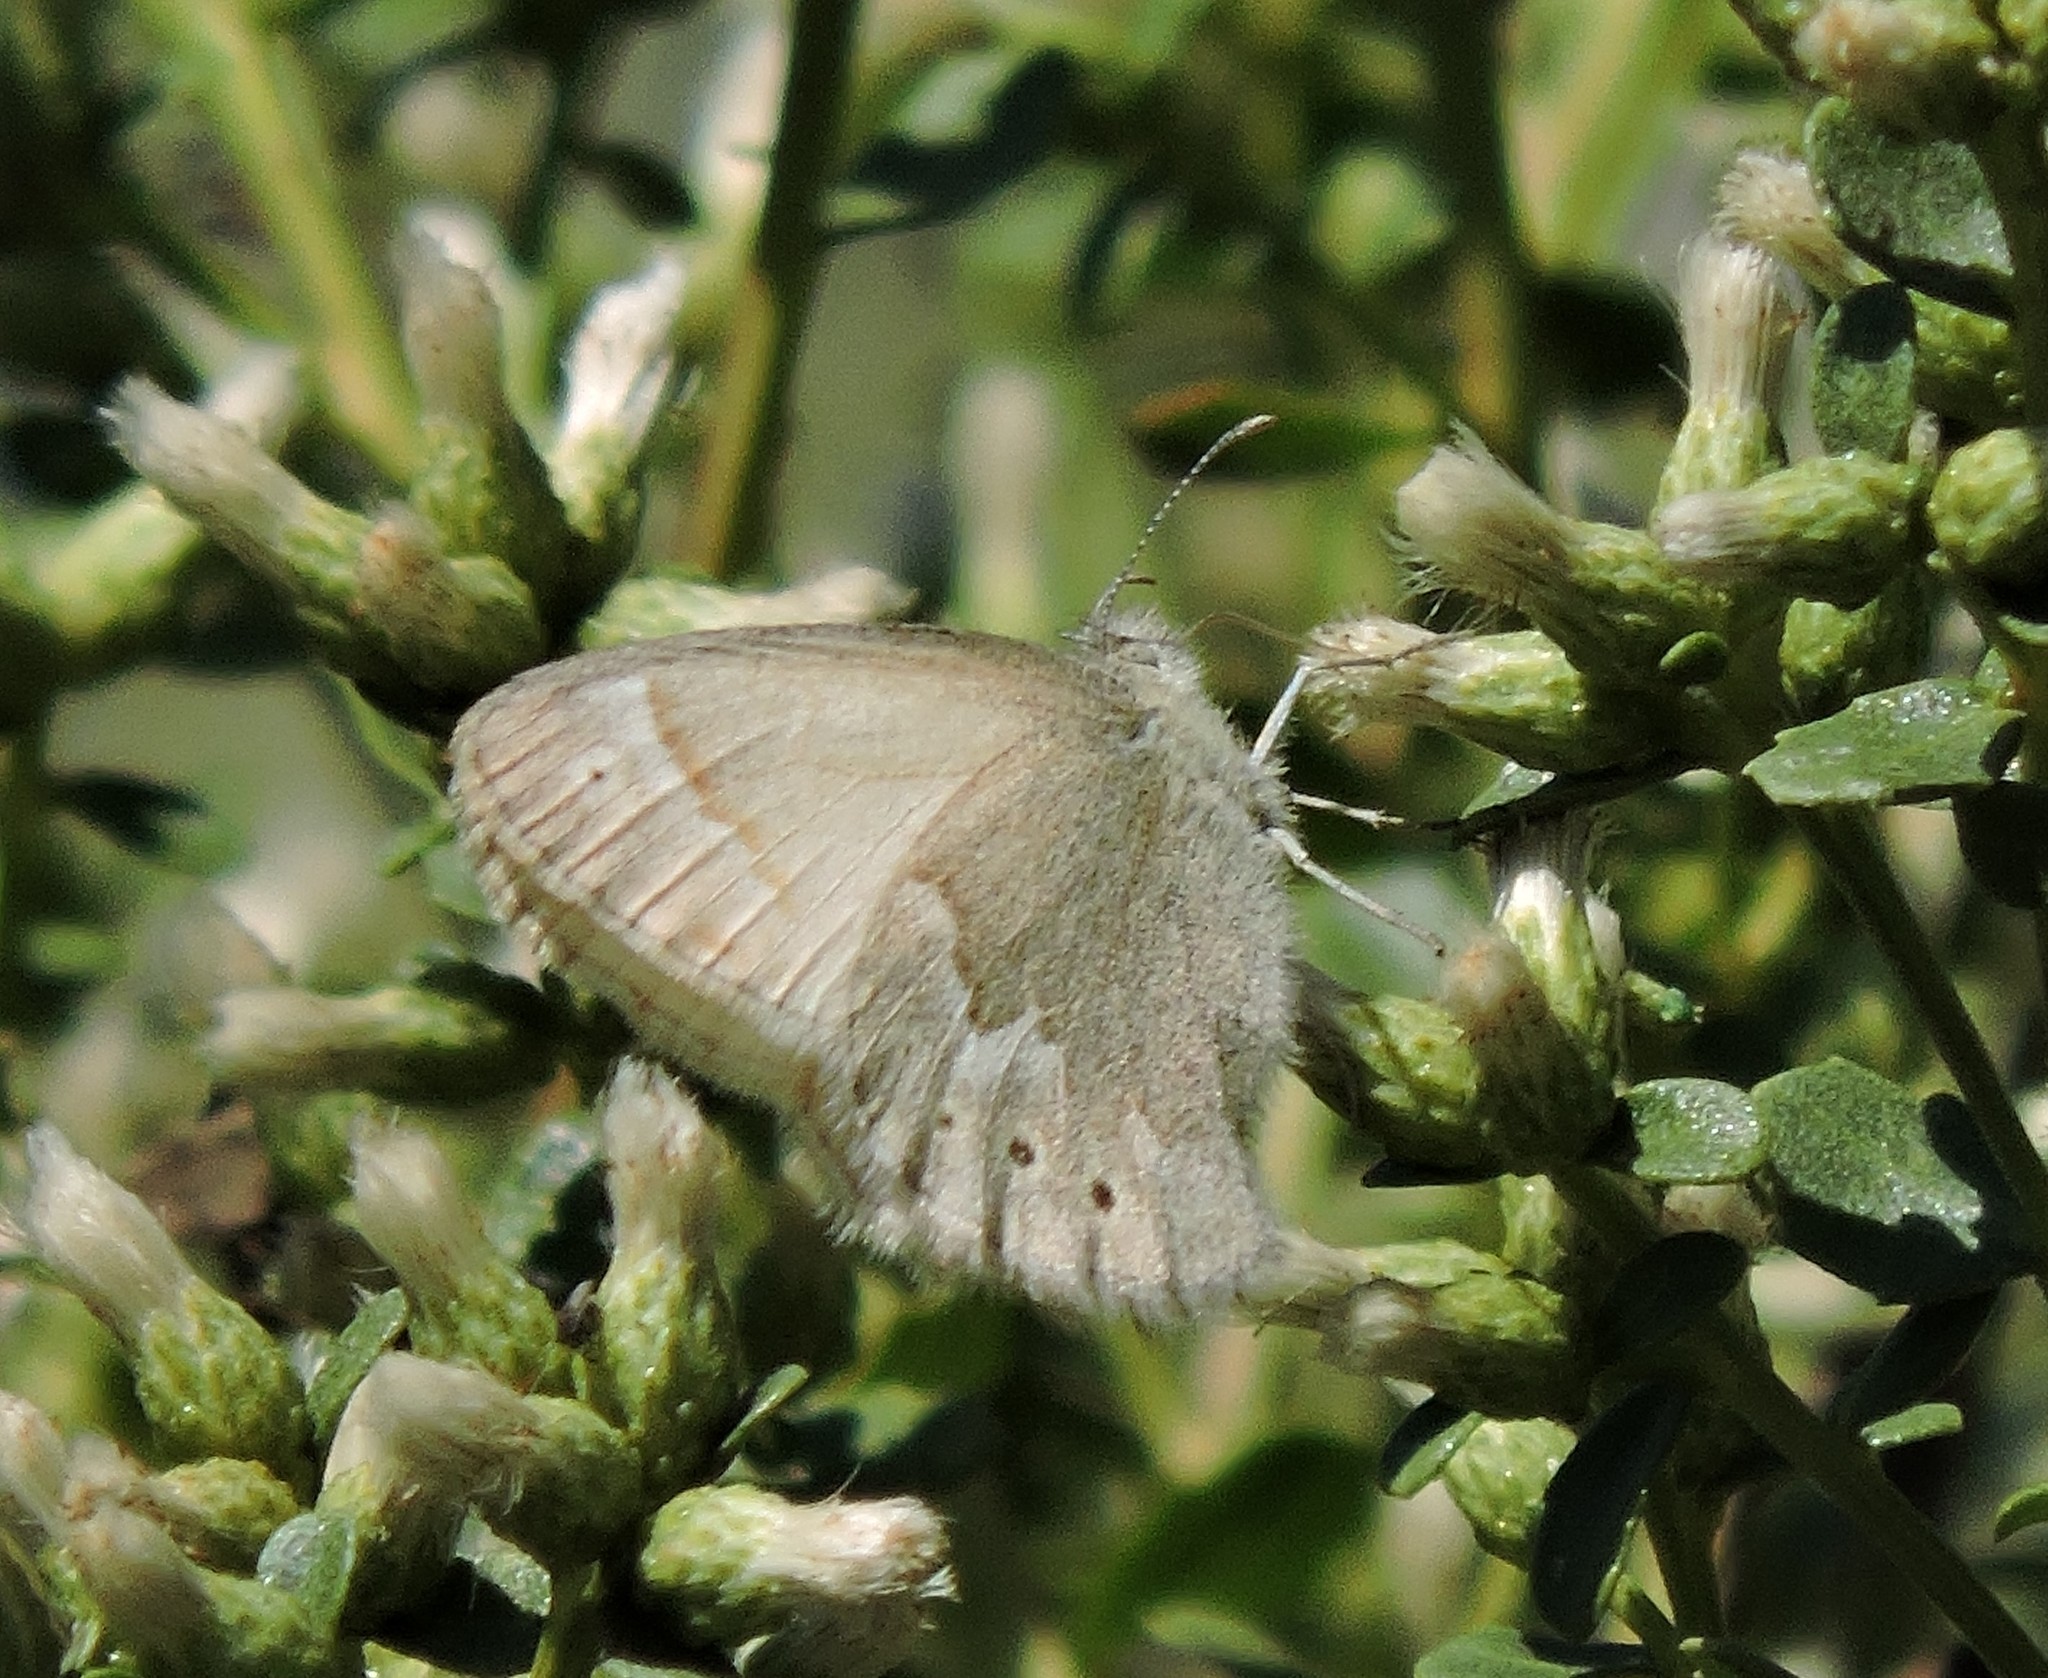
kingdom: Animalia
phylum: Arthropoda
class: Insecta
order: Lepidoptera
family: Nymphalidae
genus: Coenonympha
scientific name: Coenonympha california
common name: Common ringlet
